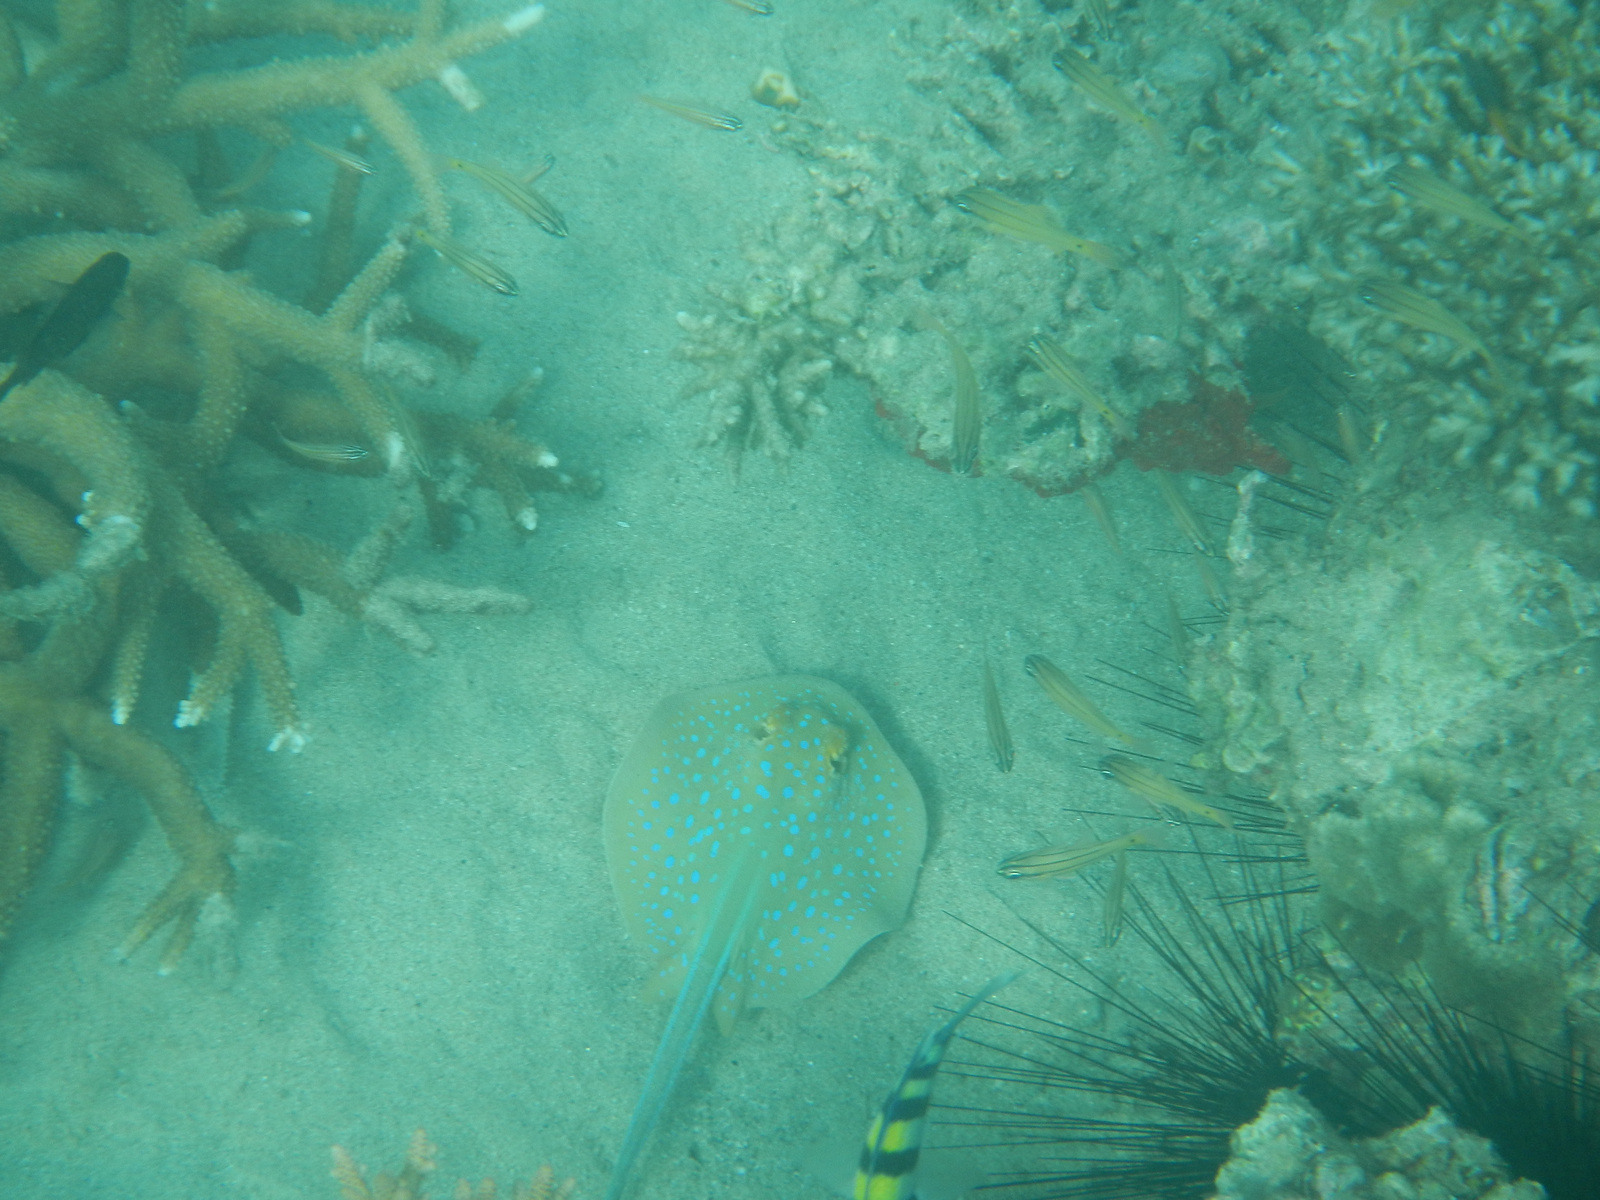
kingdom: Animalia
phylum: Chordata
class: Elasmobranchii
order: Myliobatiformes
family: Dasyatidae
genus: Taeniura
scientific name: Taeniura lymma
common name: Bluespotted ribbontail ray
